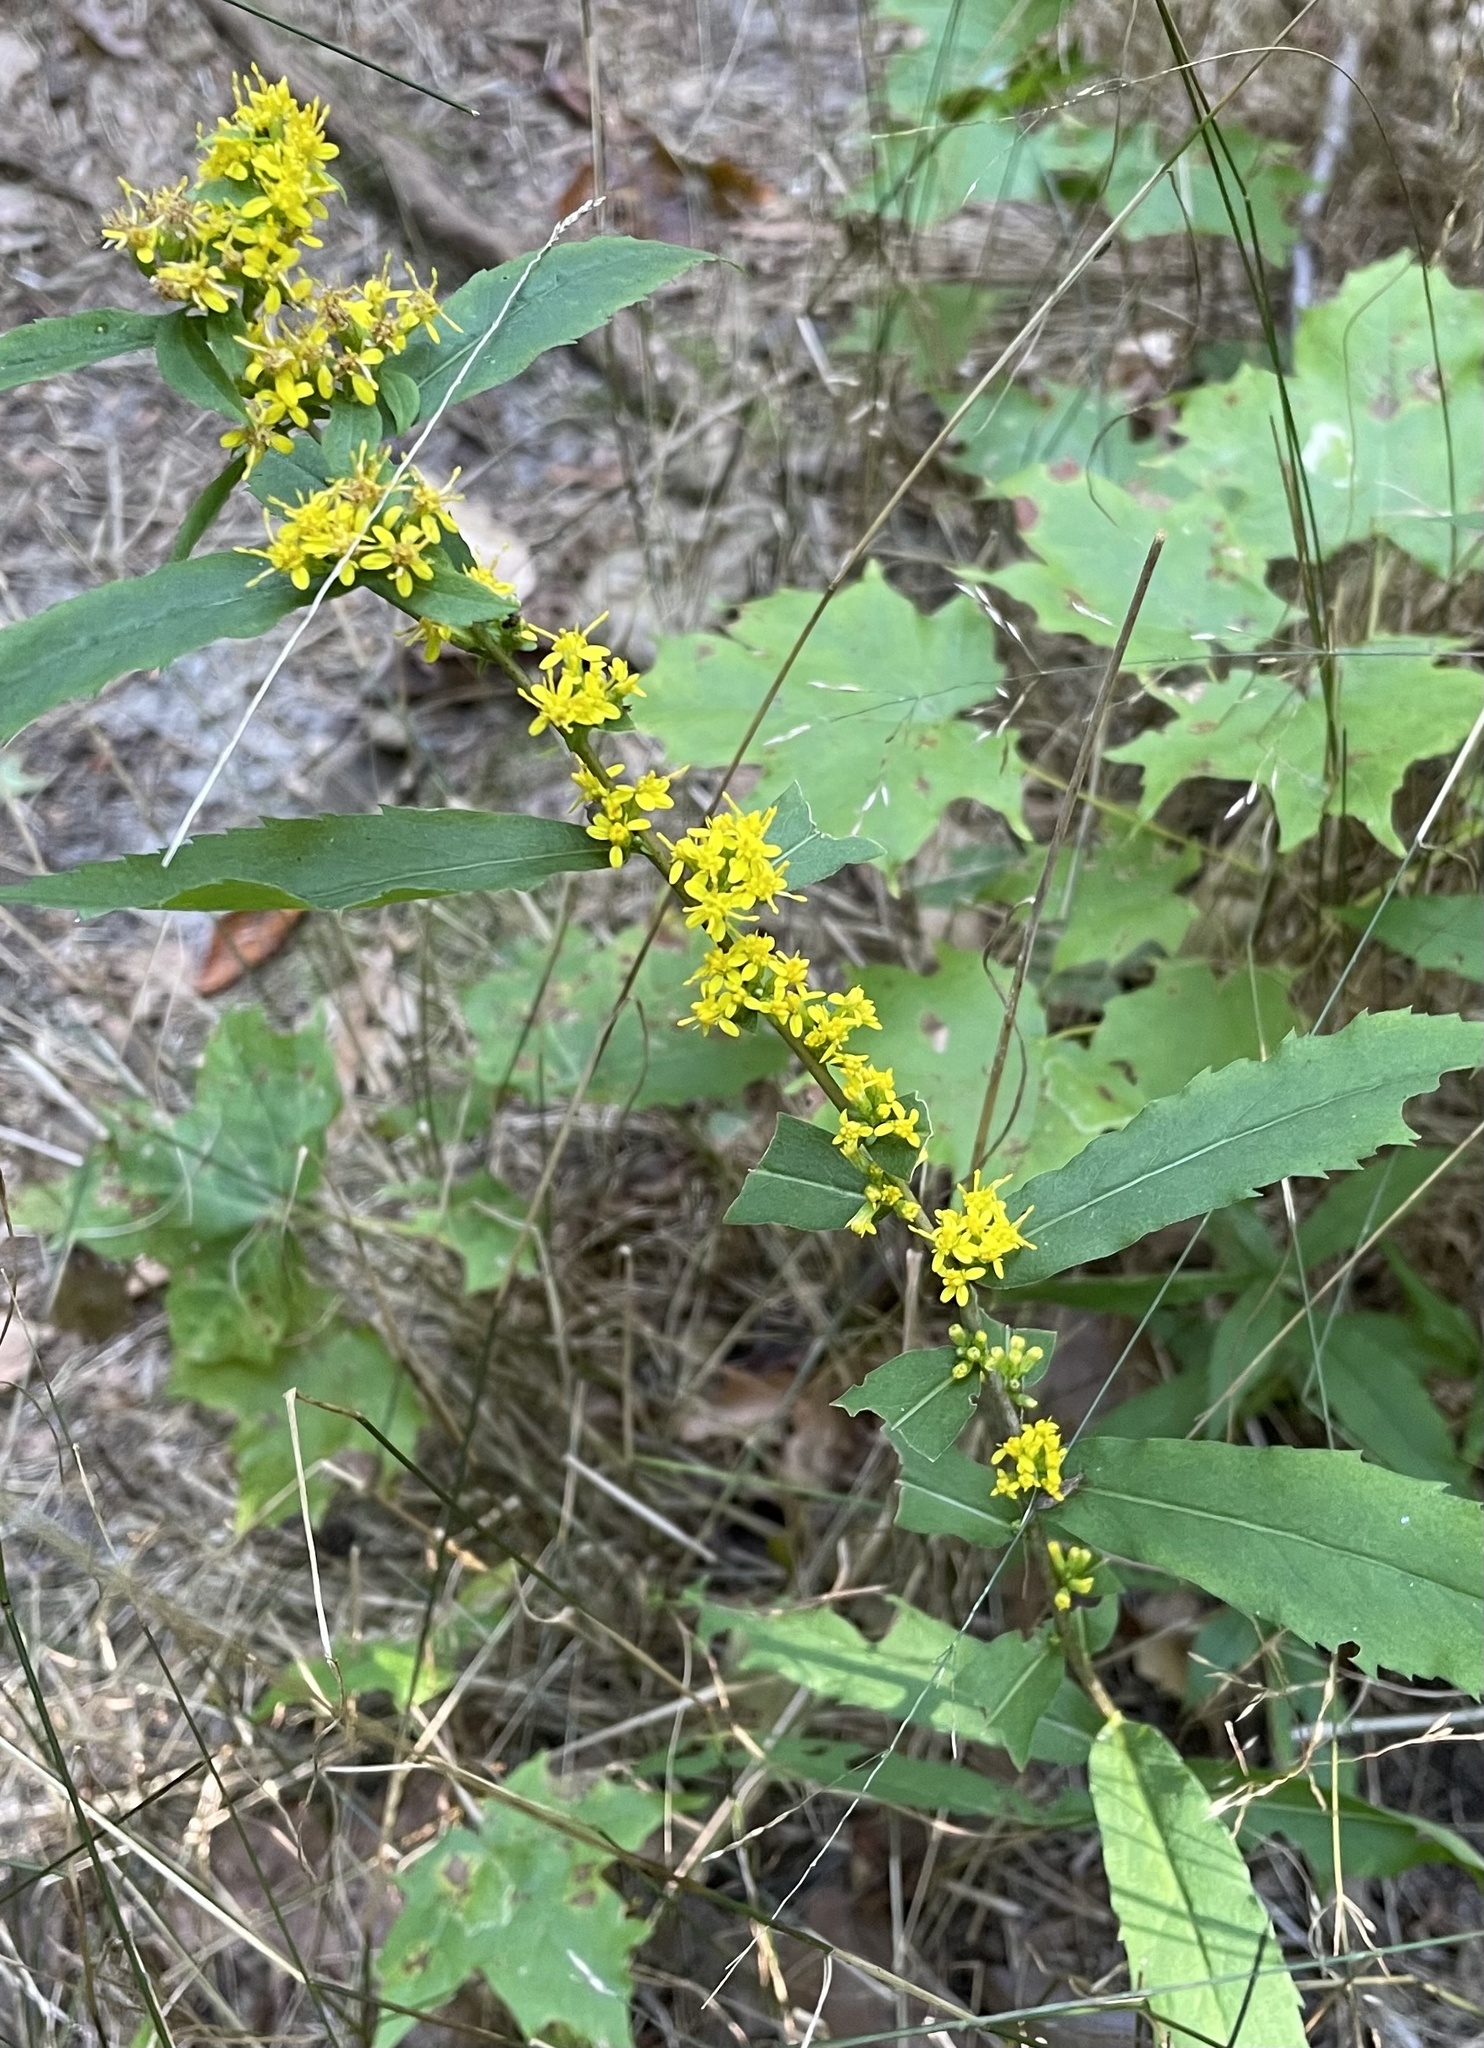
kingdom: Plantae
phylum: Tracheophyta
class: Magnoliopsida
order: Asterales
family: Asteraceae
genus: Solidago
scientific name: Solidago caesia
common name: Woodland goldenrod
